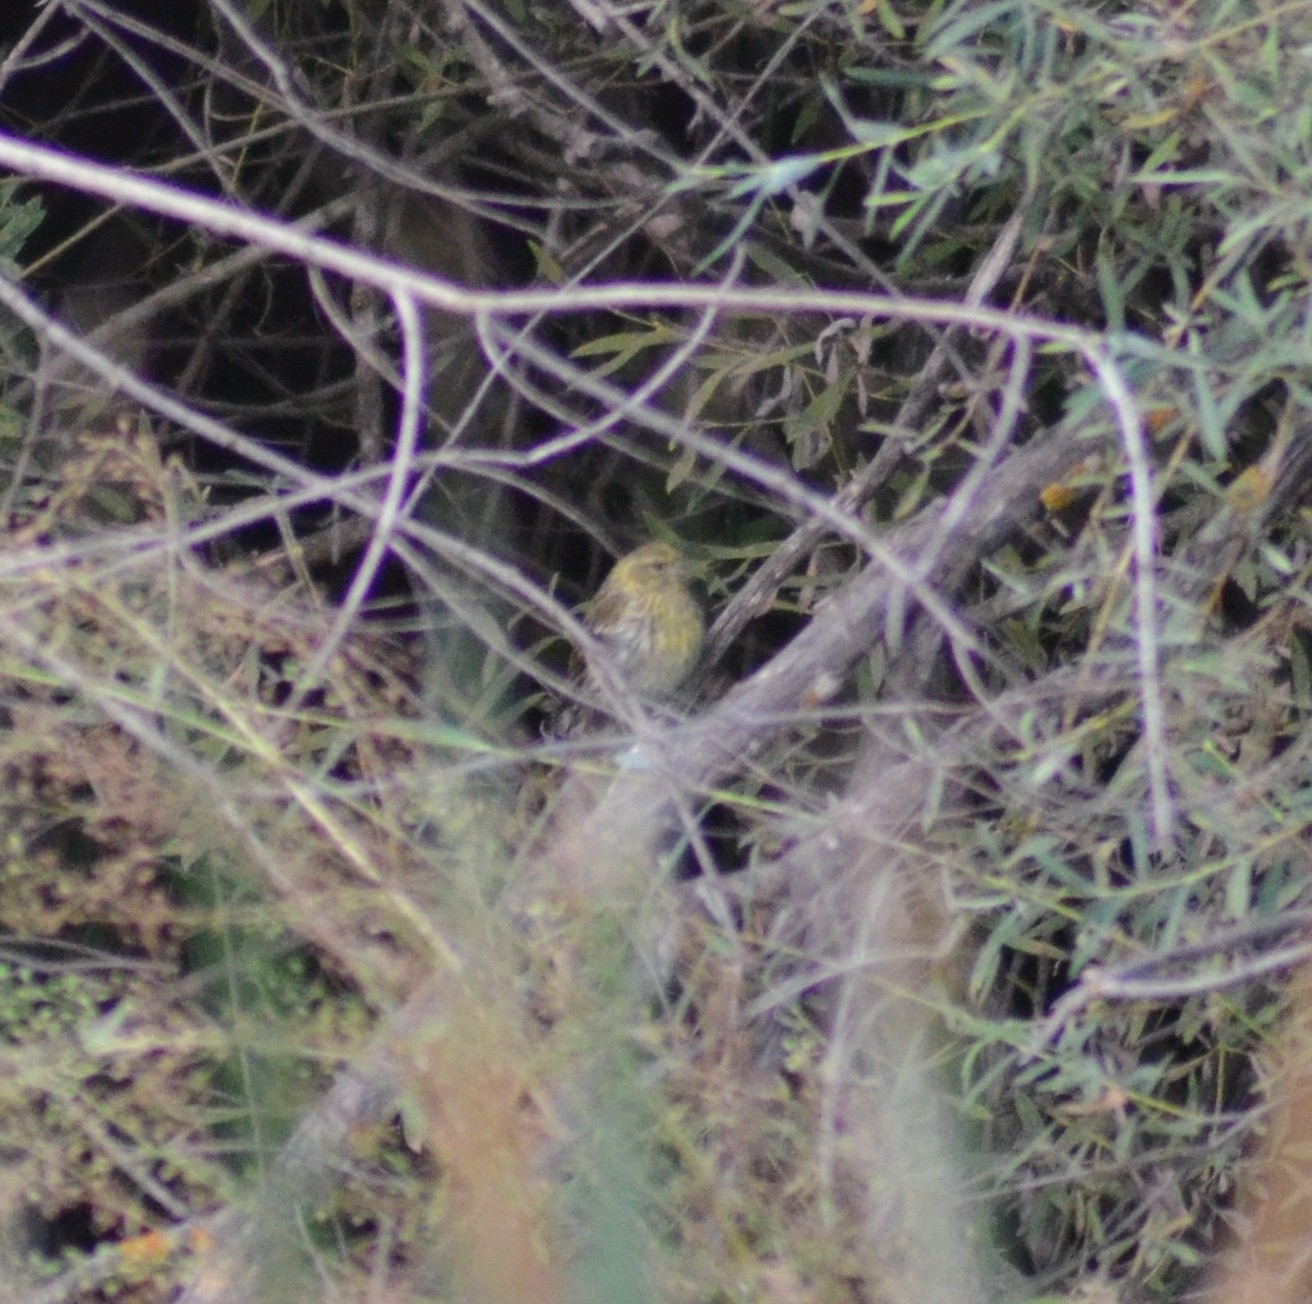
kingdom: Animalia
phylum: Chordata
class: Aves
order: Passeriformes
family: Fringillidae
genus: Serinus
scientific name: Serinus serinus
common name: European serin
